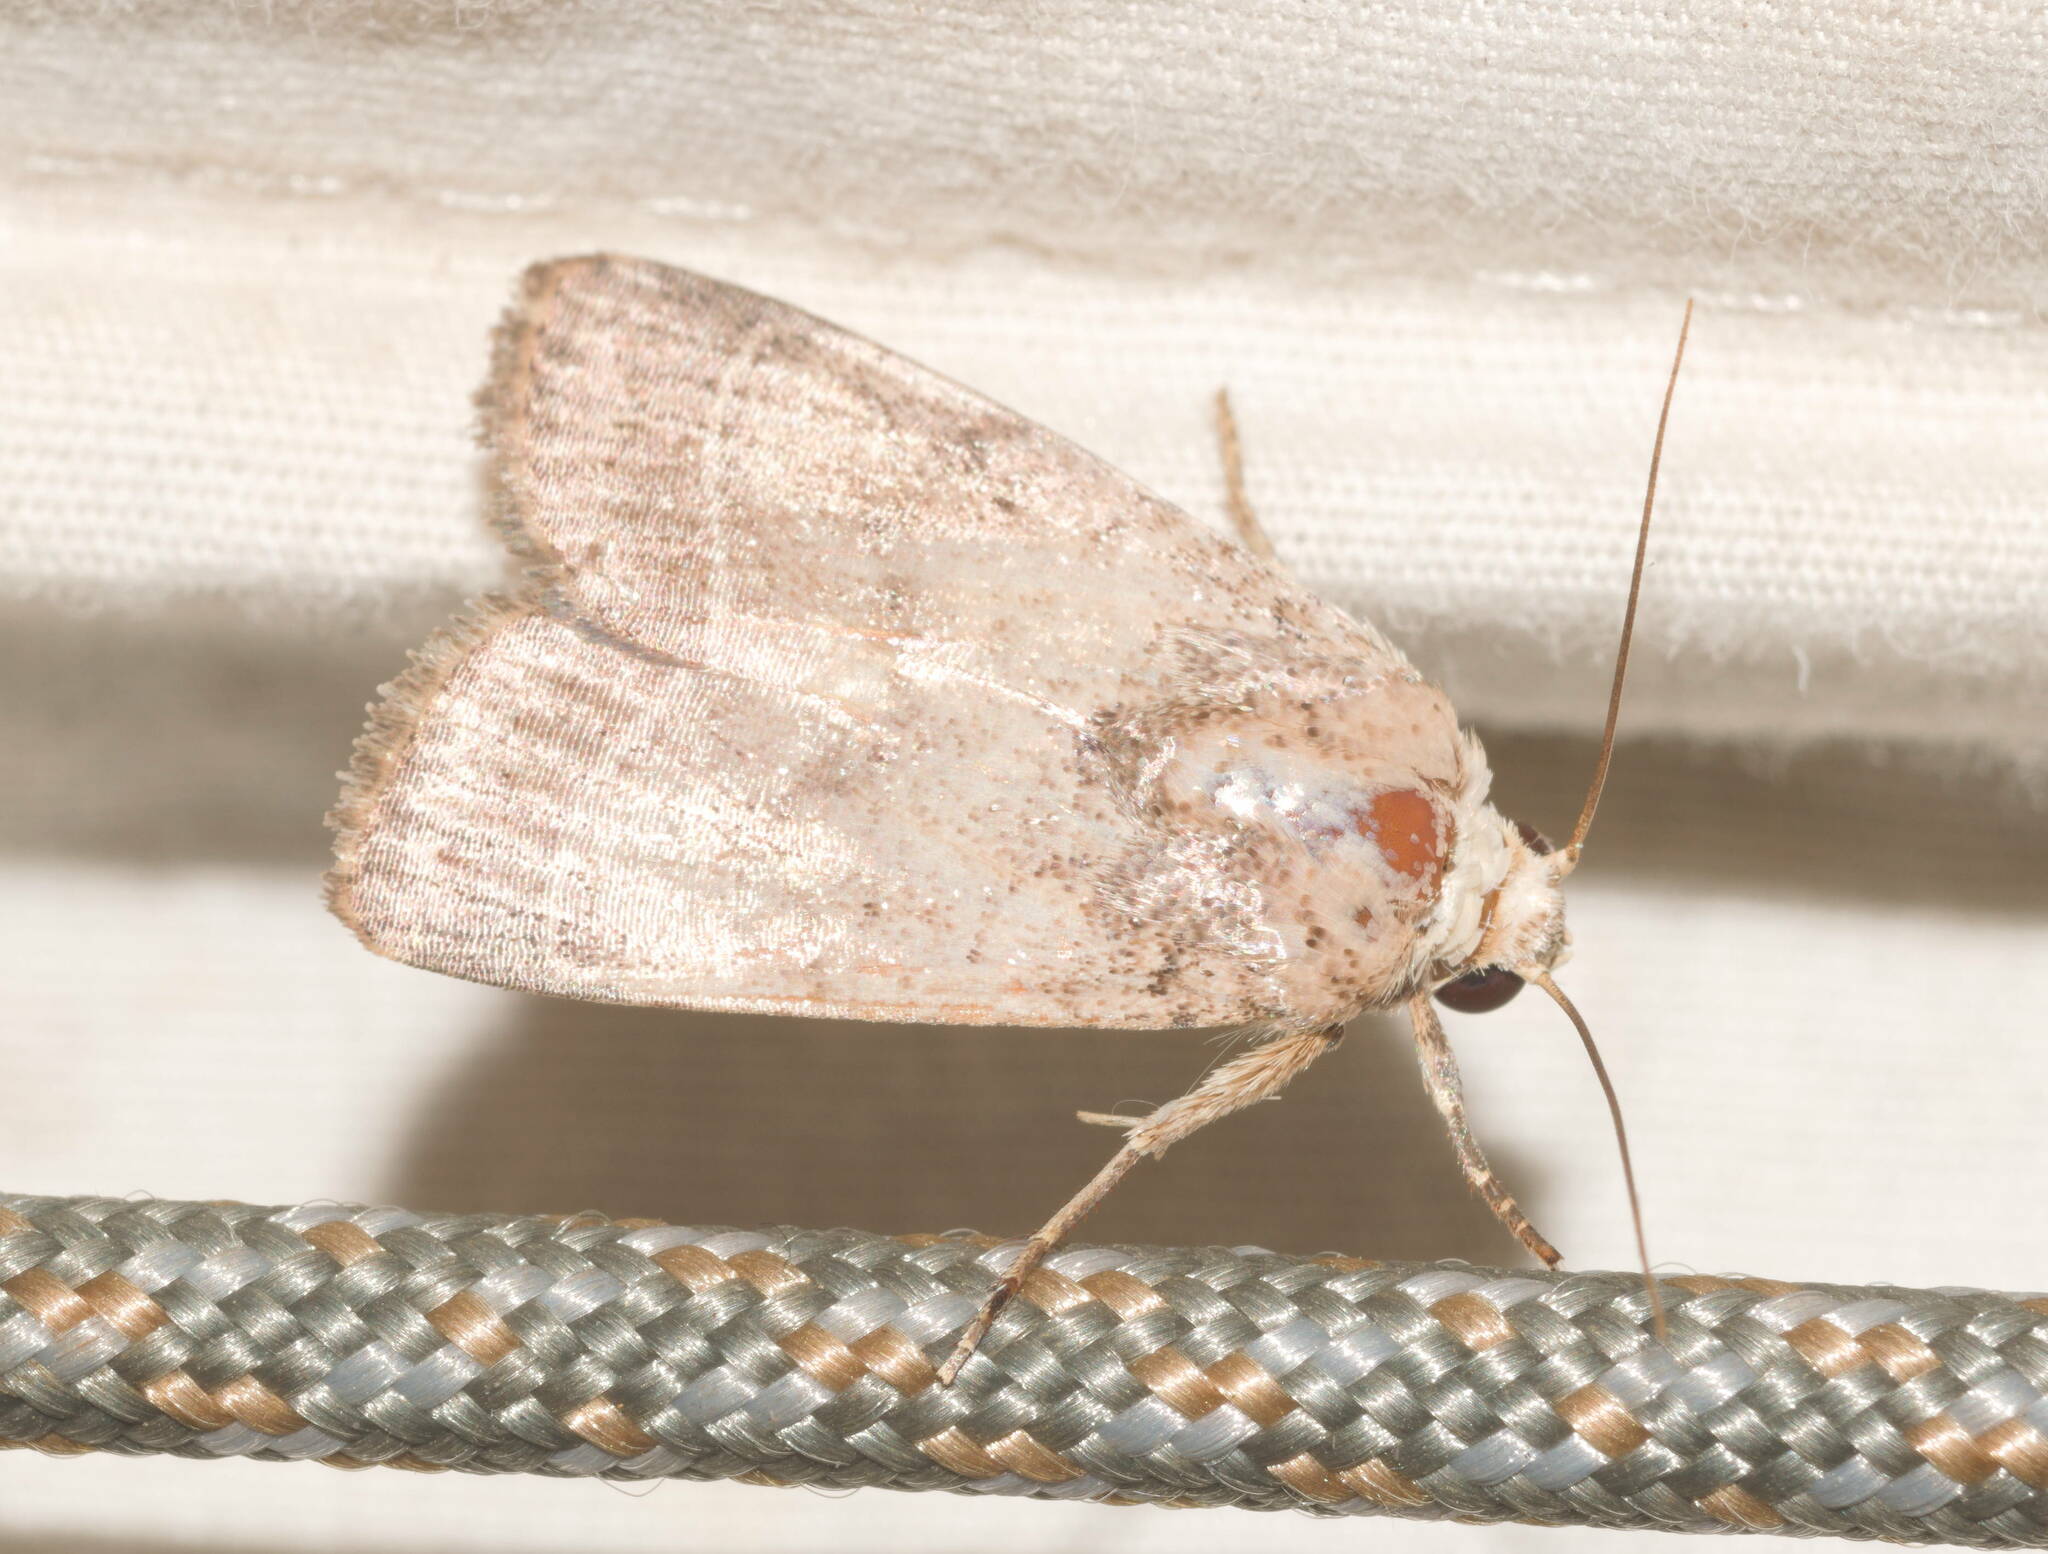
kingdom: Animalia
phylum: Arthropoda
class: Insecta
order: Lepidoptera
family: Noctuidae
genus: Athetis
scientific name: Athetis thoracica
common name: Cutworm
